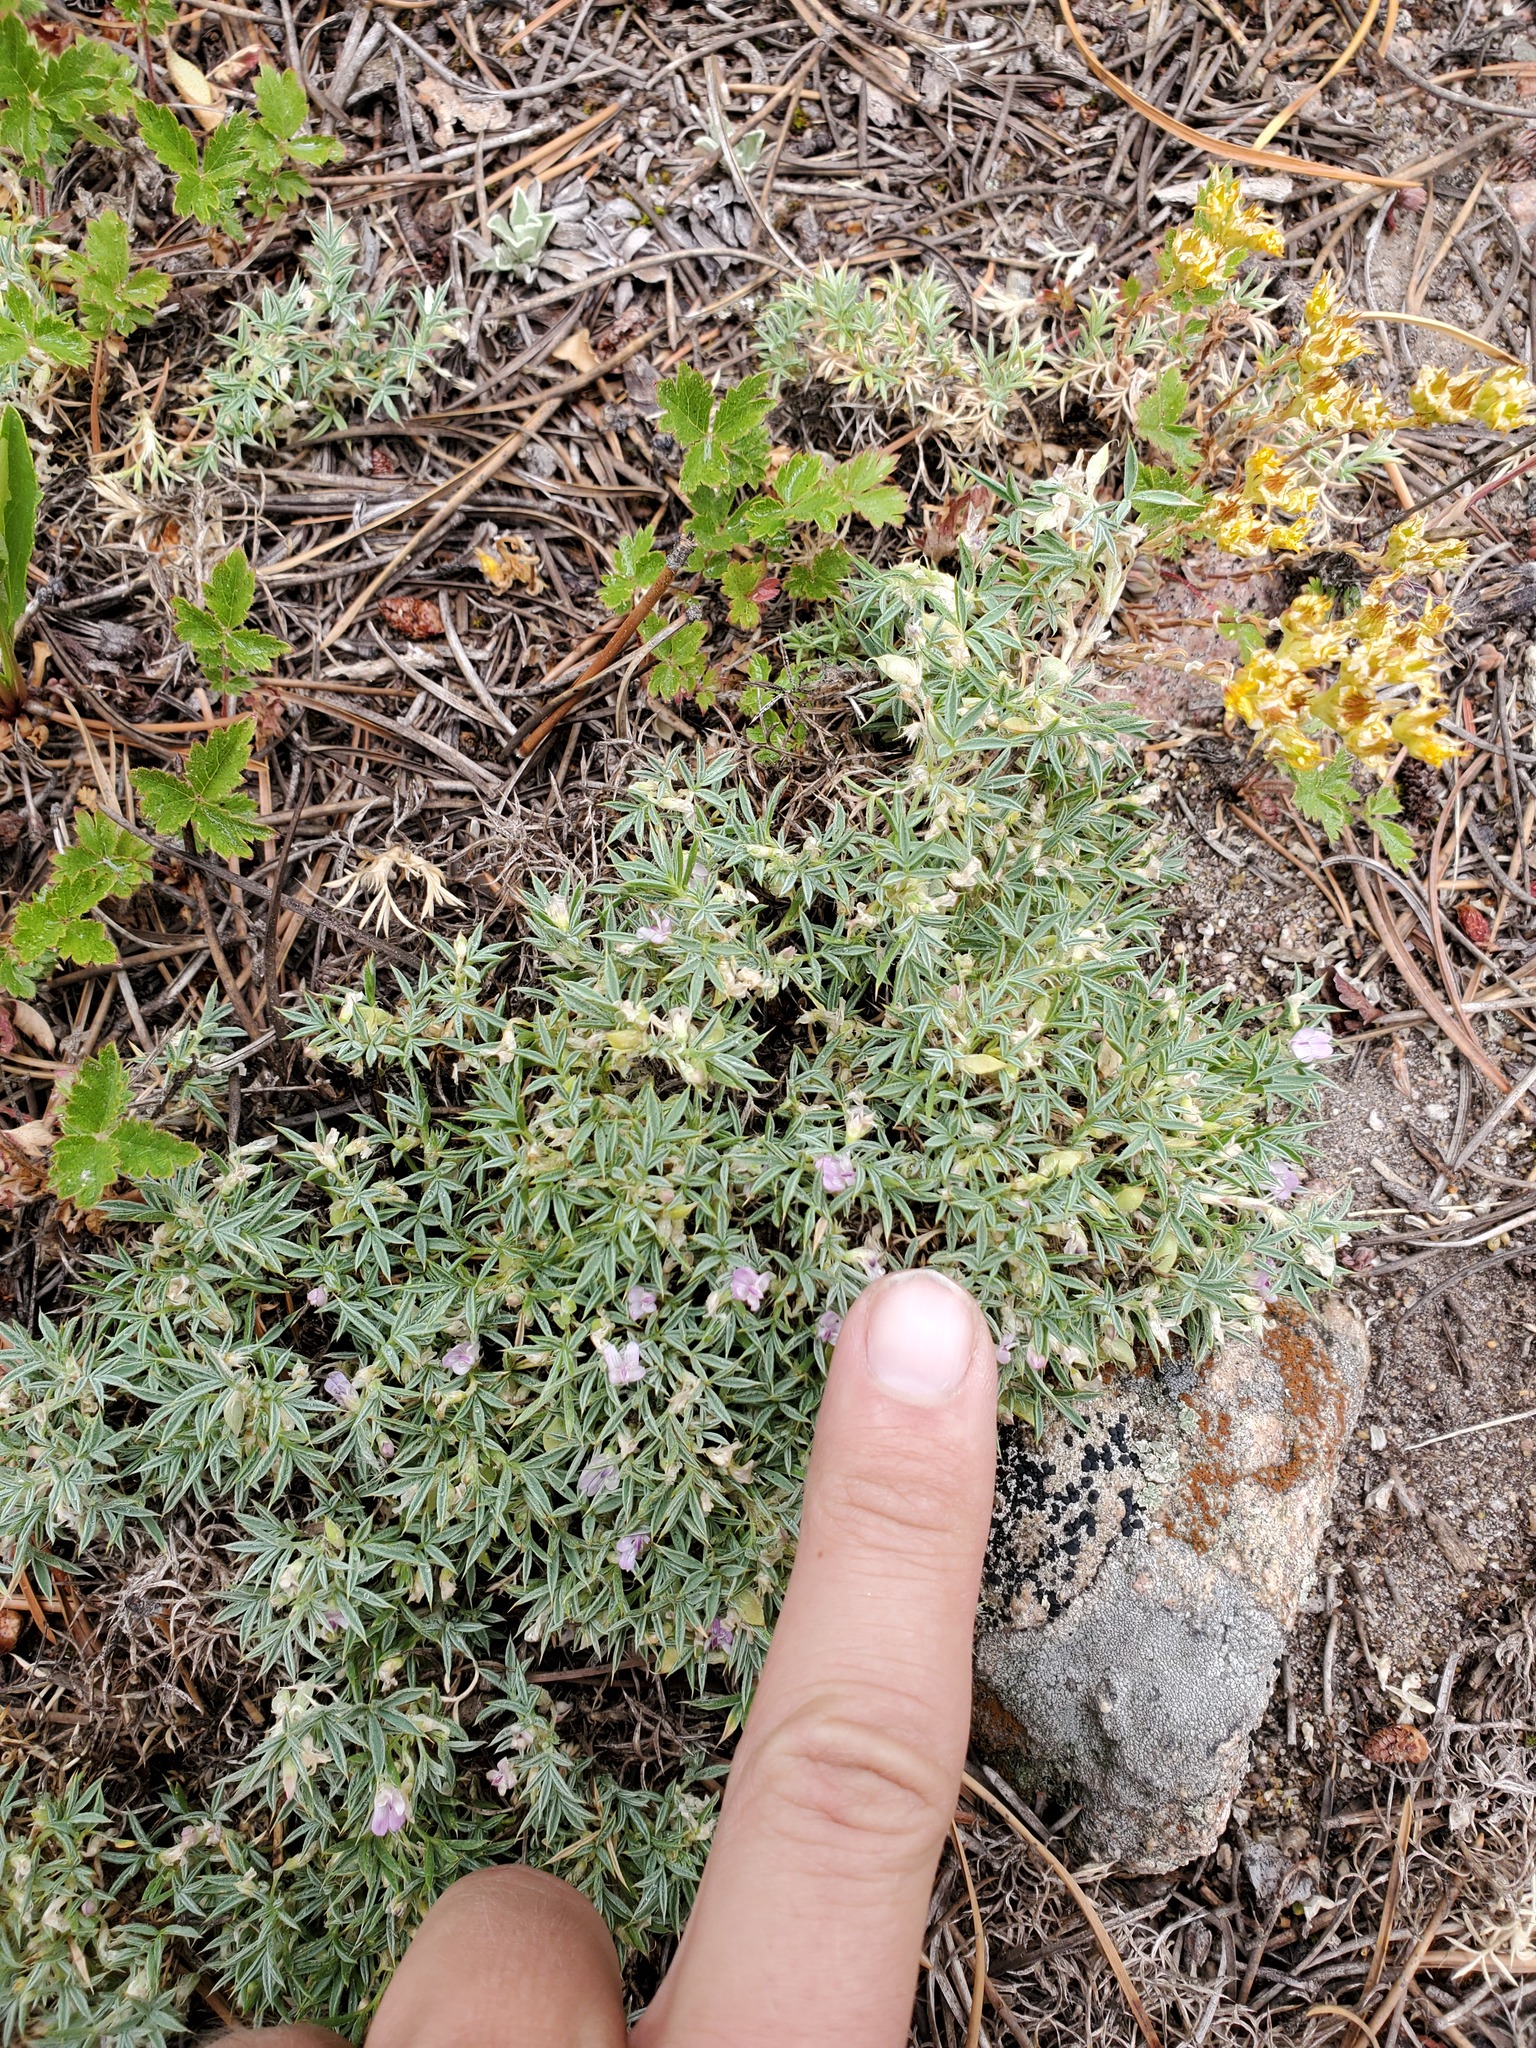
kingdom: Plantae
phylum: Tracheophyta
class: Magnoliopsida
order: Fabales
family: Fabaceae
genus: Astragalus
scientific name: Astragalus kentrophyta
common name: Prickly milk-vetch
